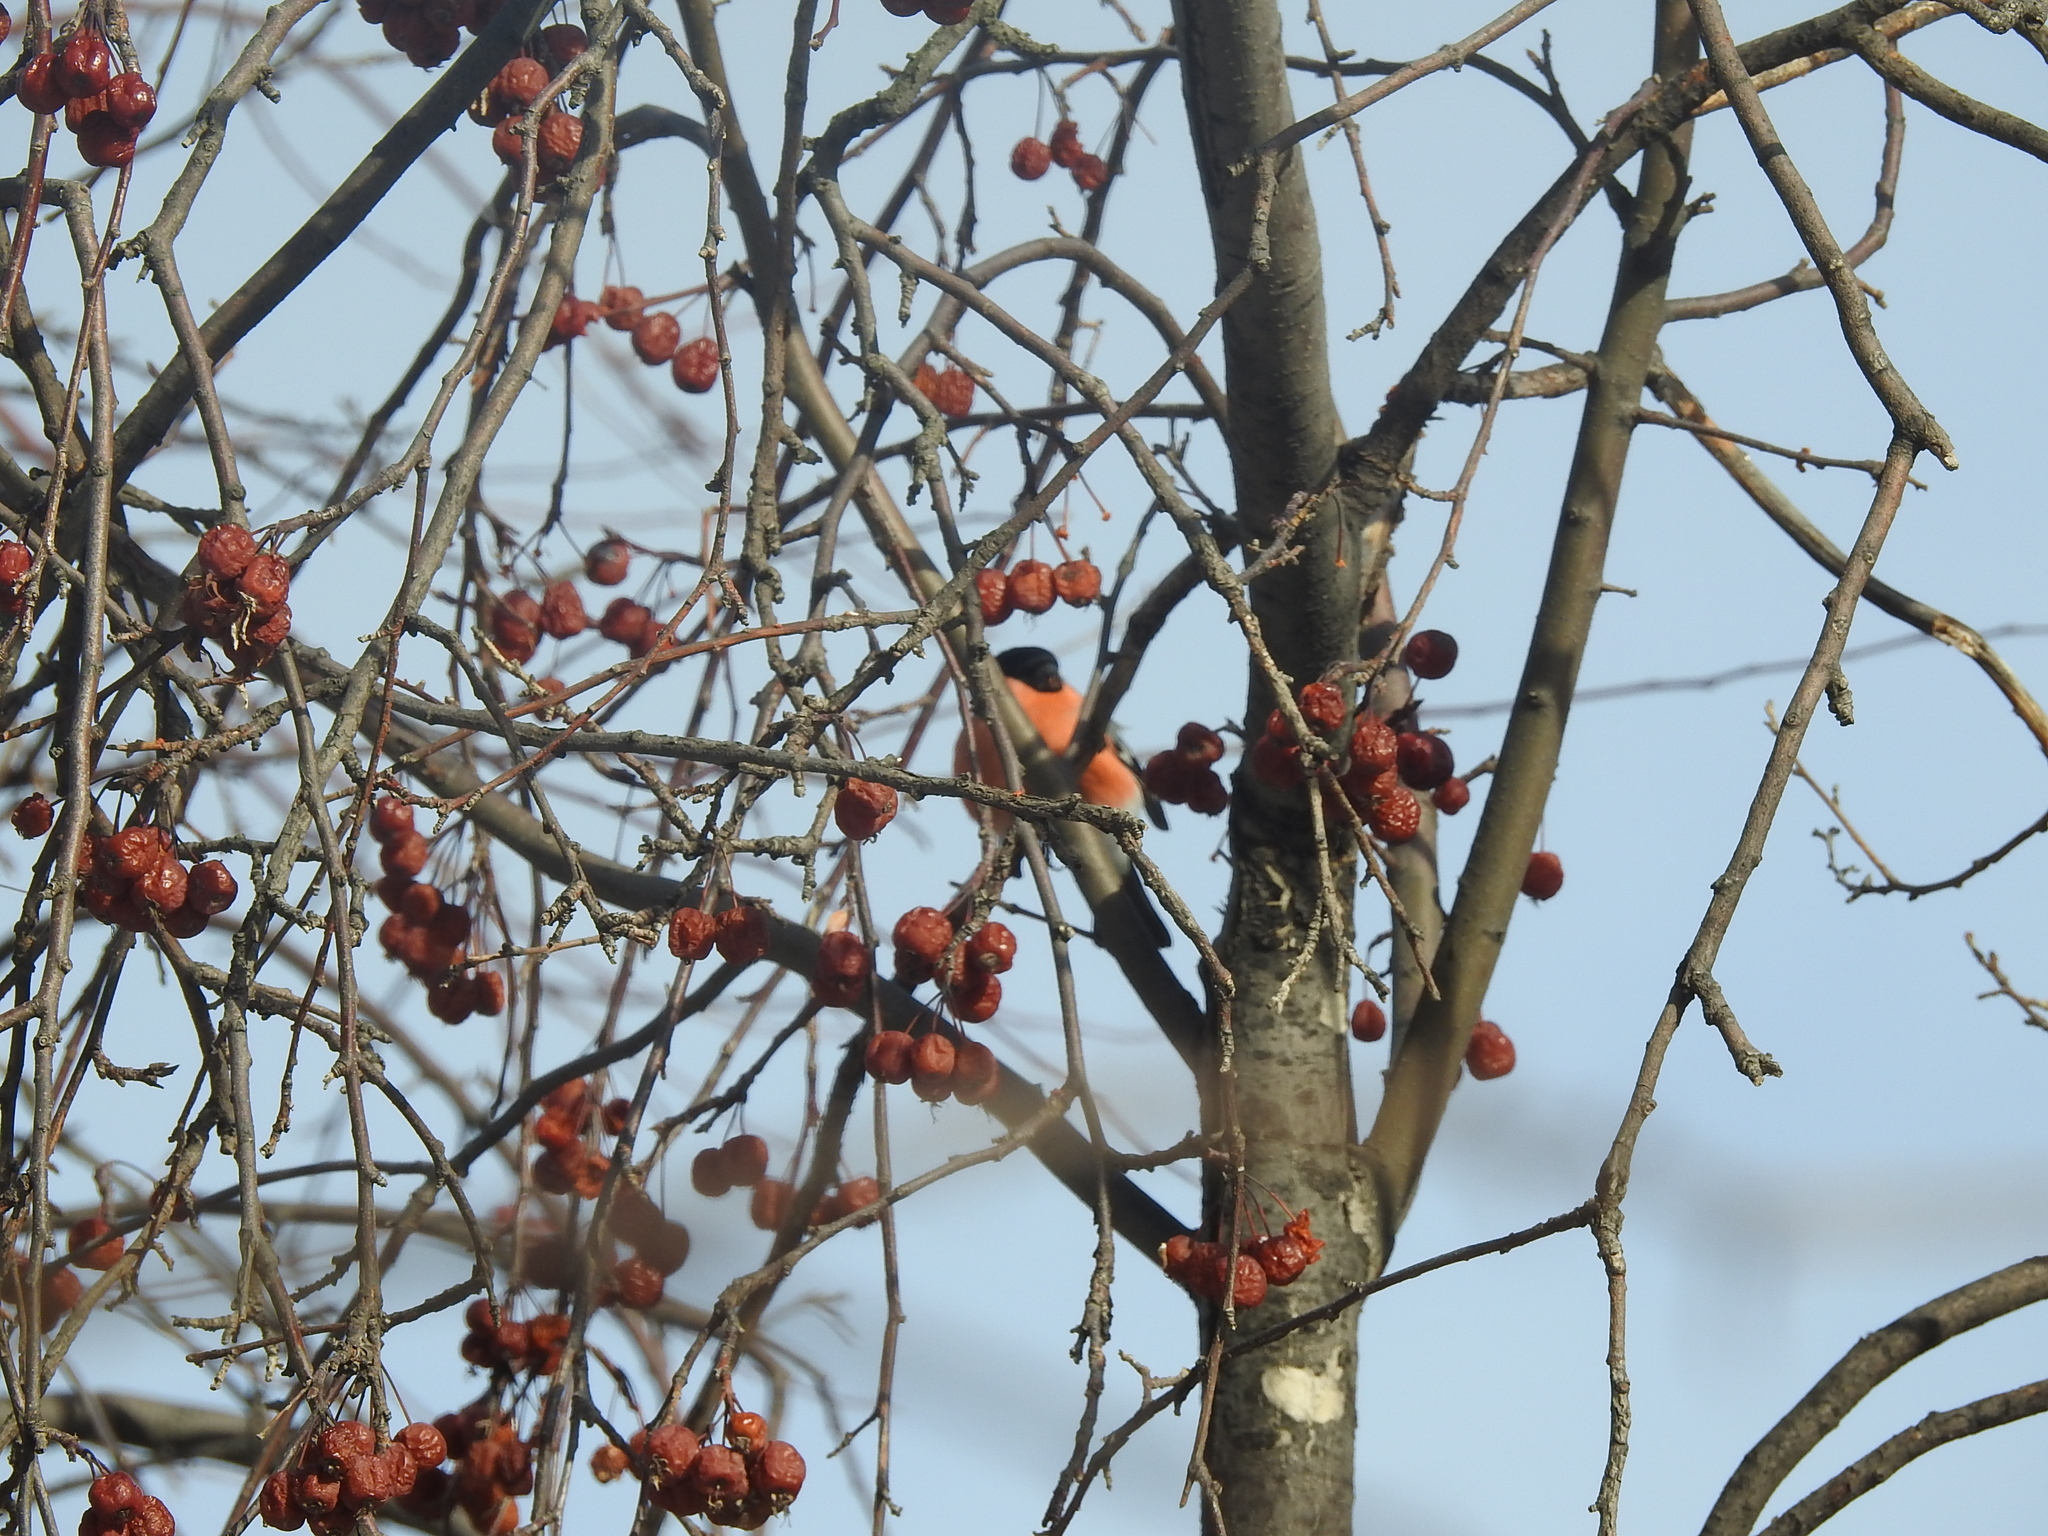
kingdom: Animalia
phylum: Chordata
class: Aves
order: Passeriformes
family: Fringillidae
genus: Pyrrhula
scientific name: Pyrrhula pyrrhula
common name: Eurasian bullfinch
